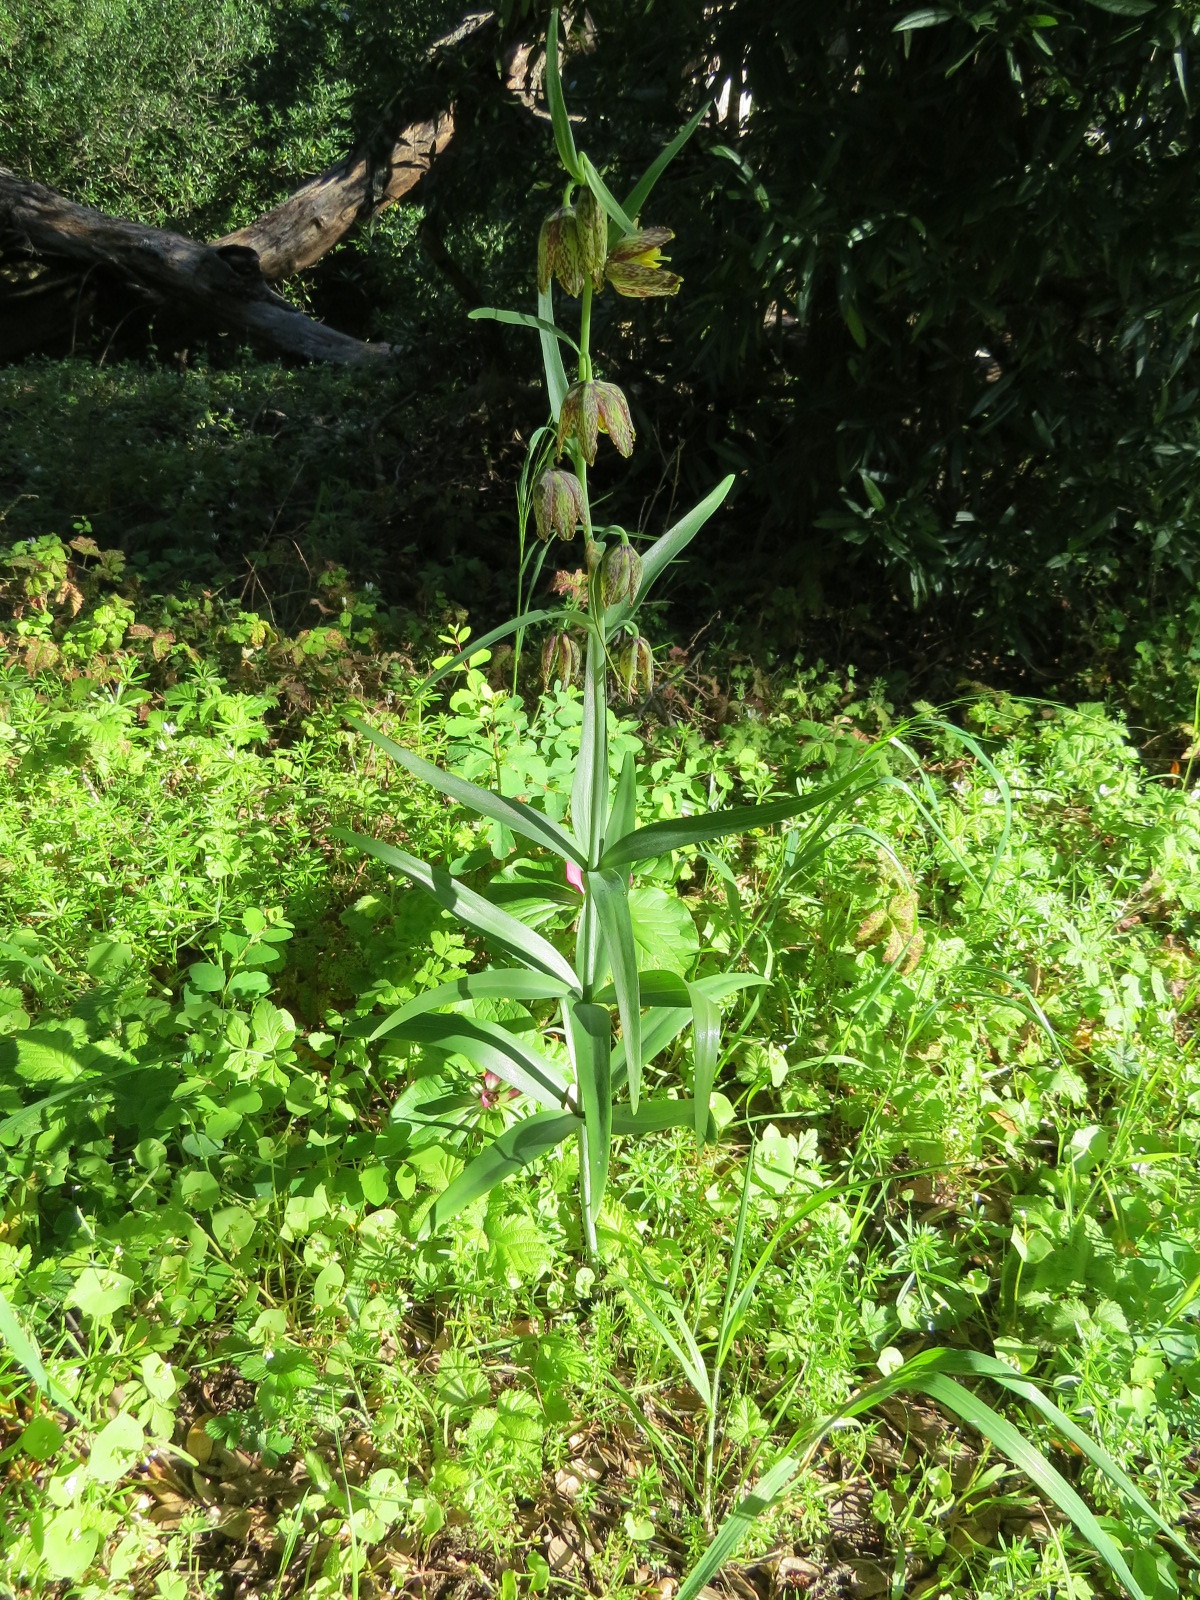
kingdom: Plantae
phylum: Tracheophyta
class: Liliopsida
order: Liliales
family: Liliaceae
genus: Fritillaria
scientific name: Fritillaria affinis
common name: Ojai fritillary
